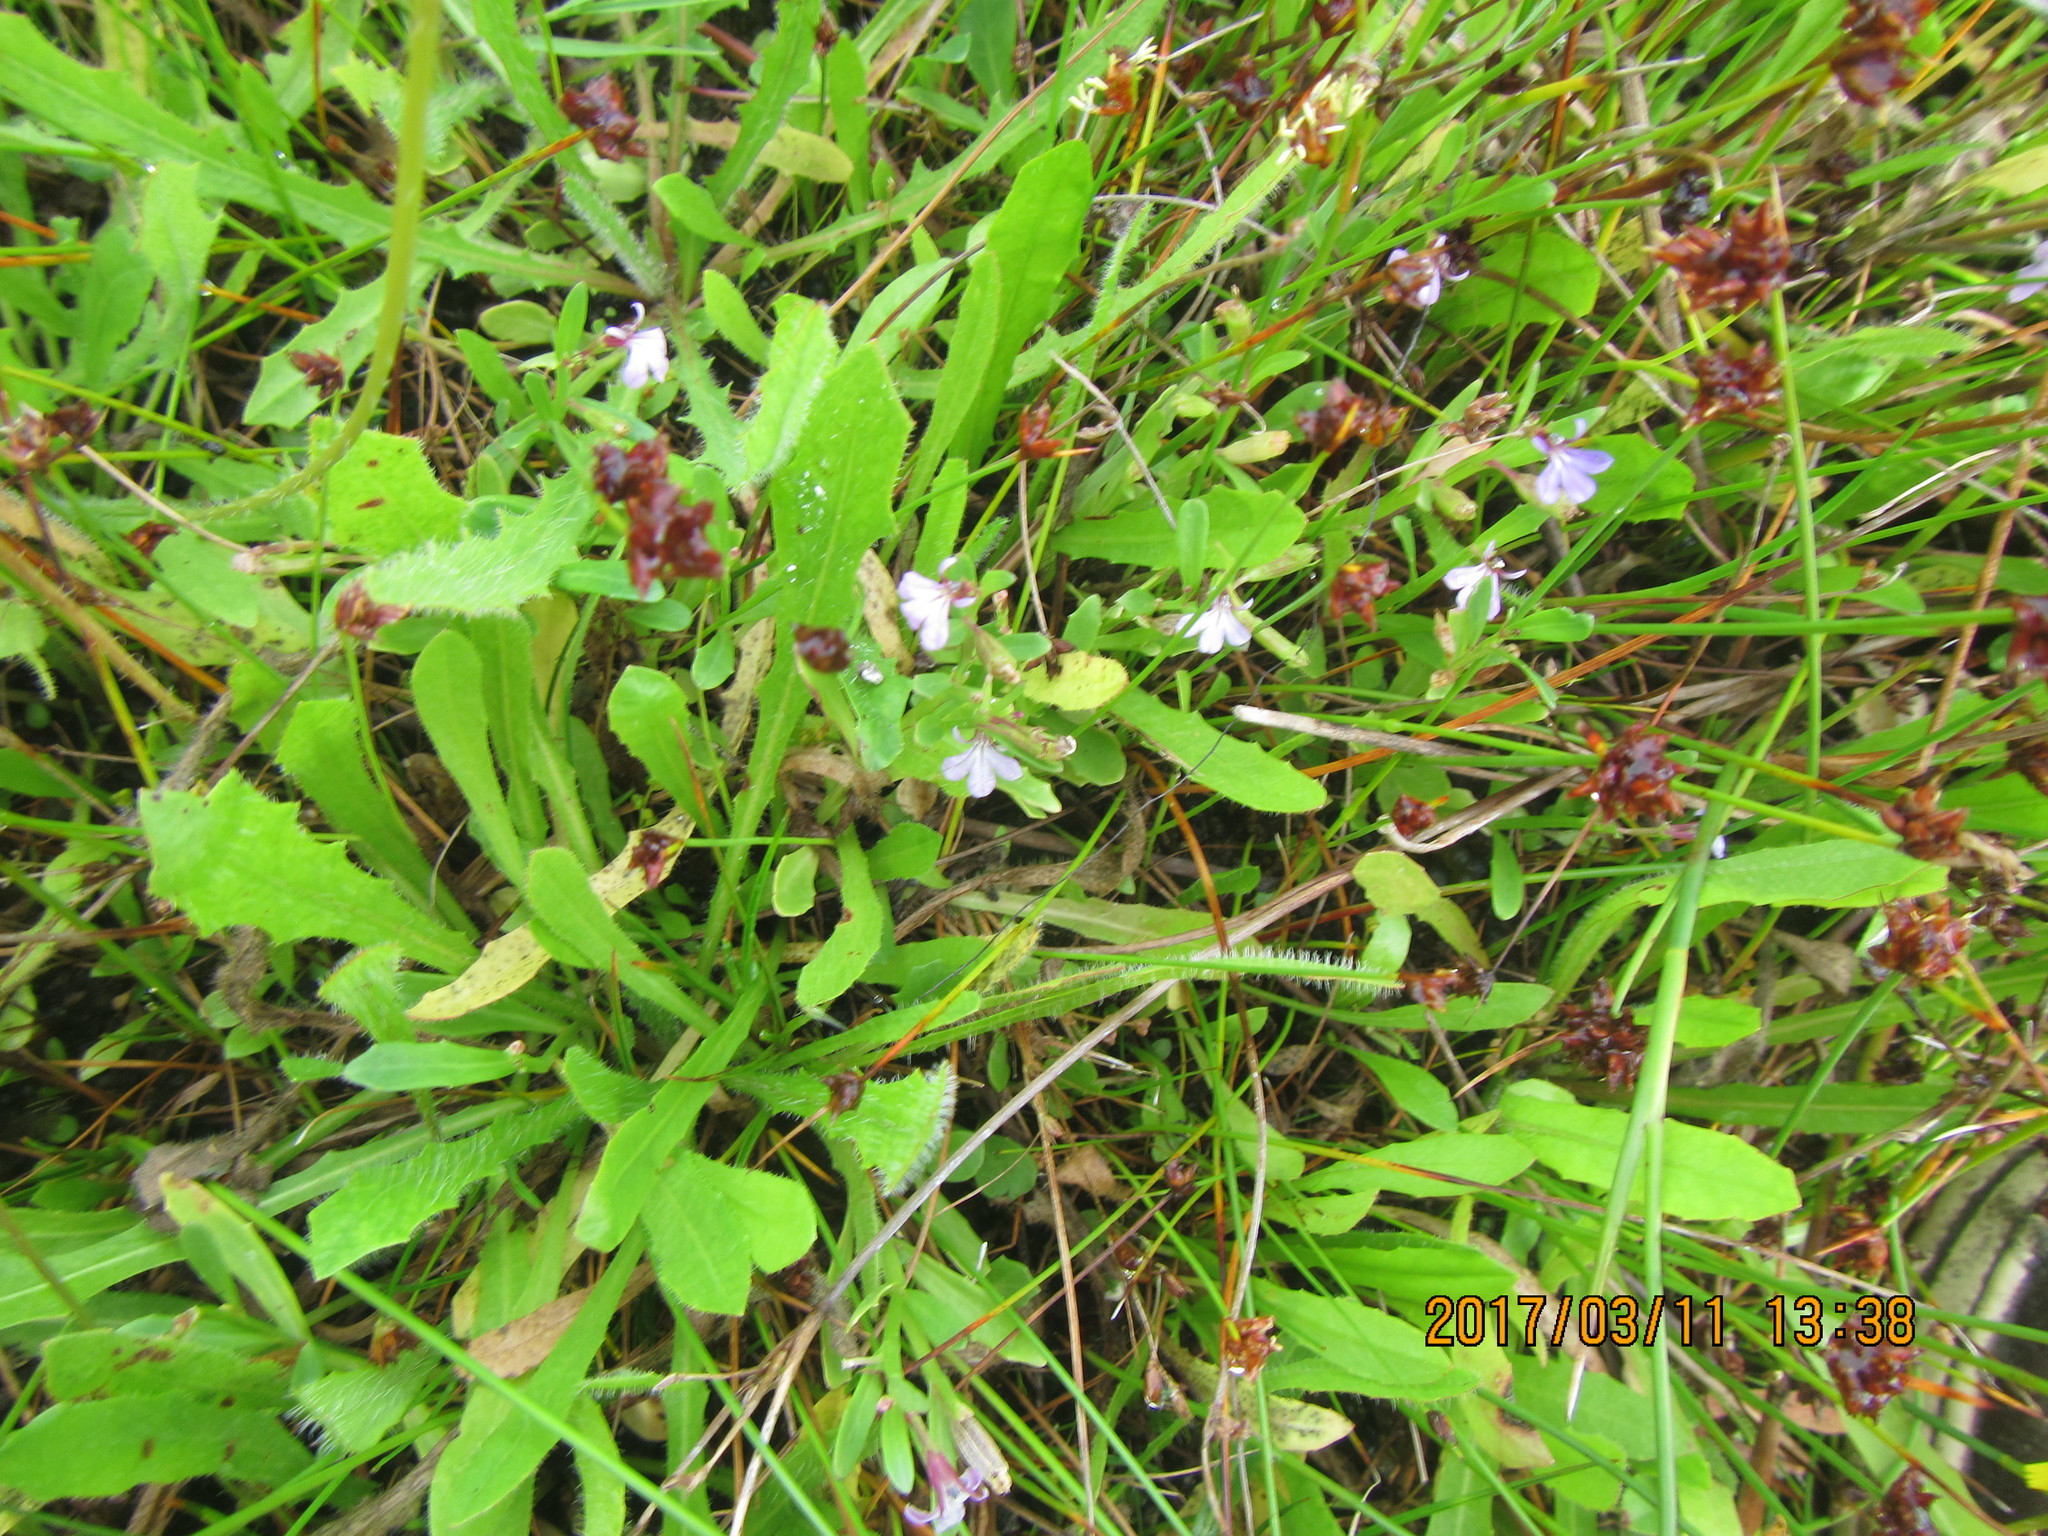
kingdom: Plantae
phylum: Tracheophyta
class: Magnoliopsida
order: Asterales
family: Campanulaceae
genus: Lobelia
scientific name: Lobelia anceps
